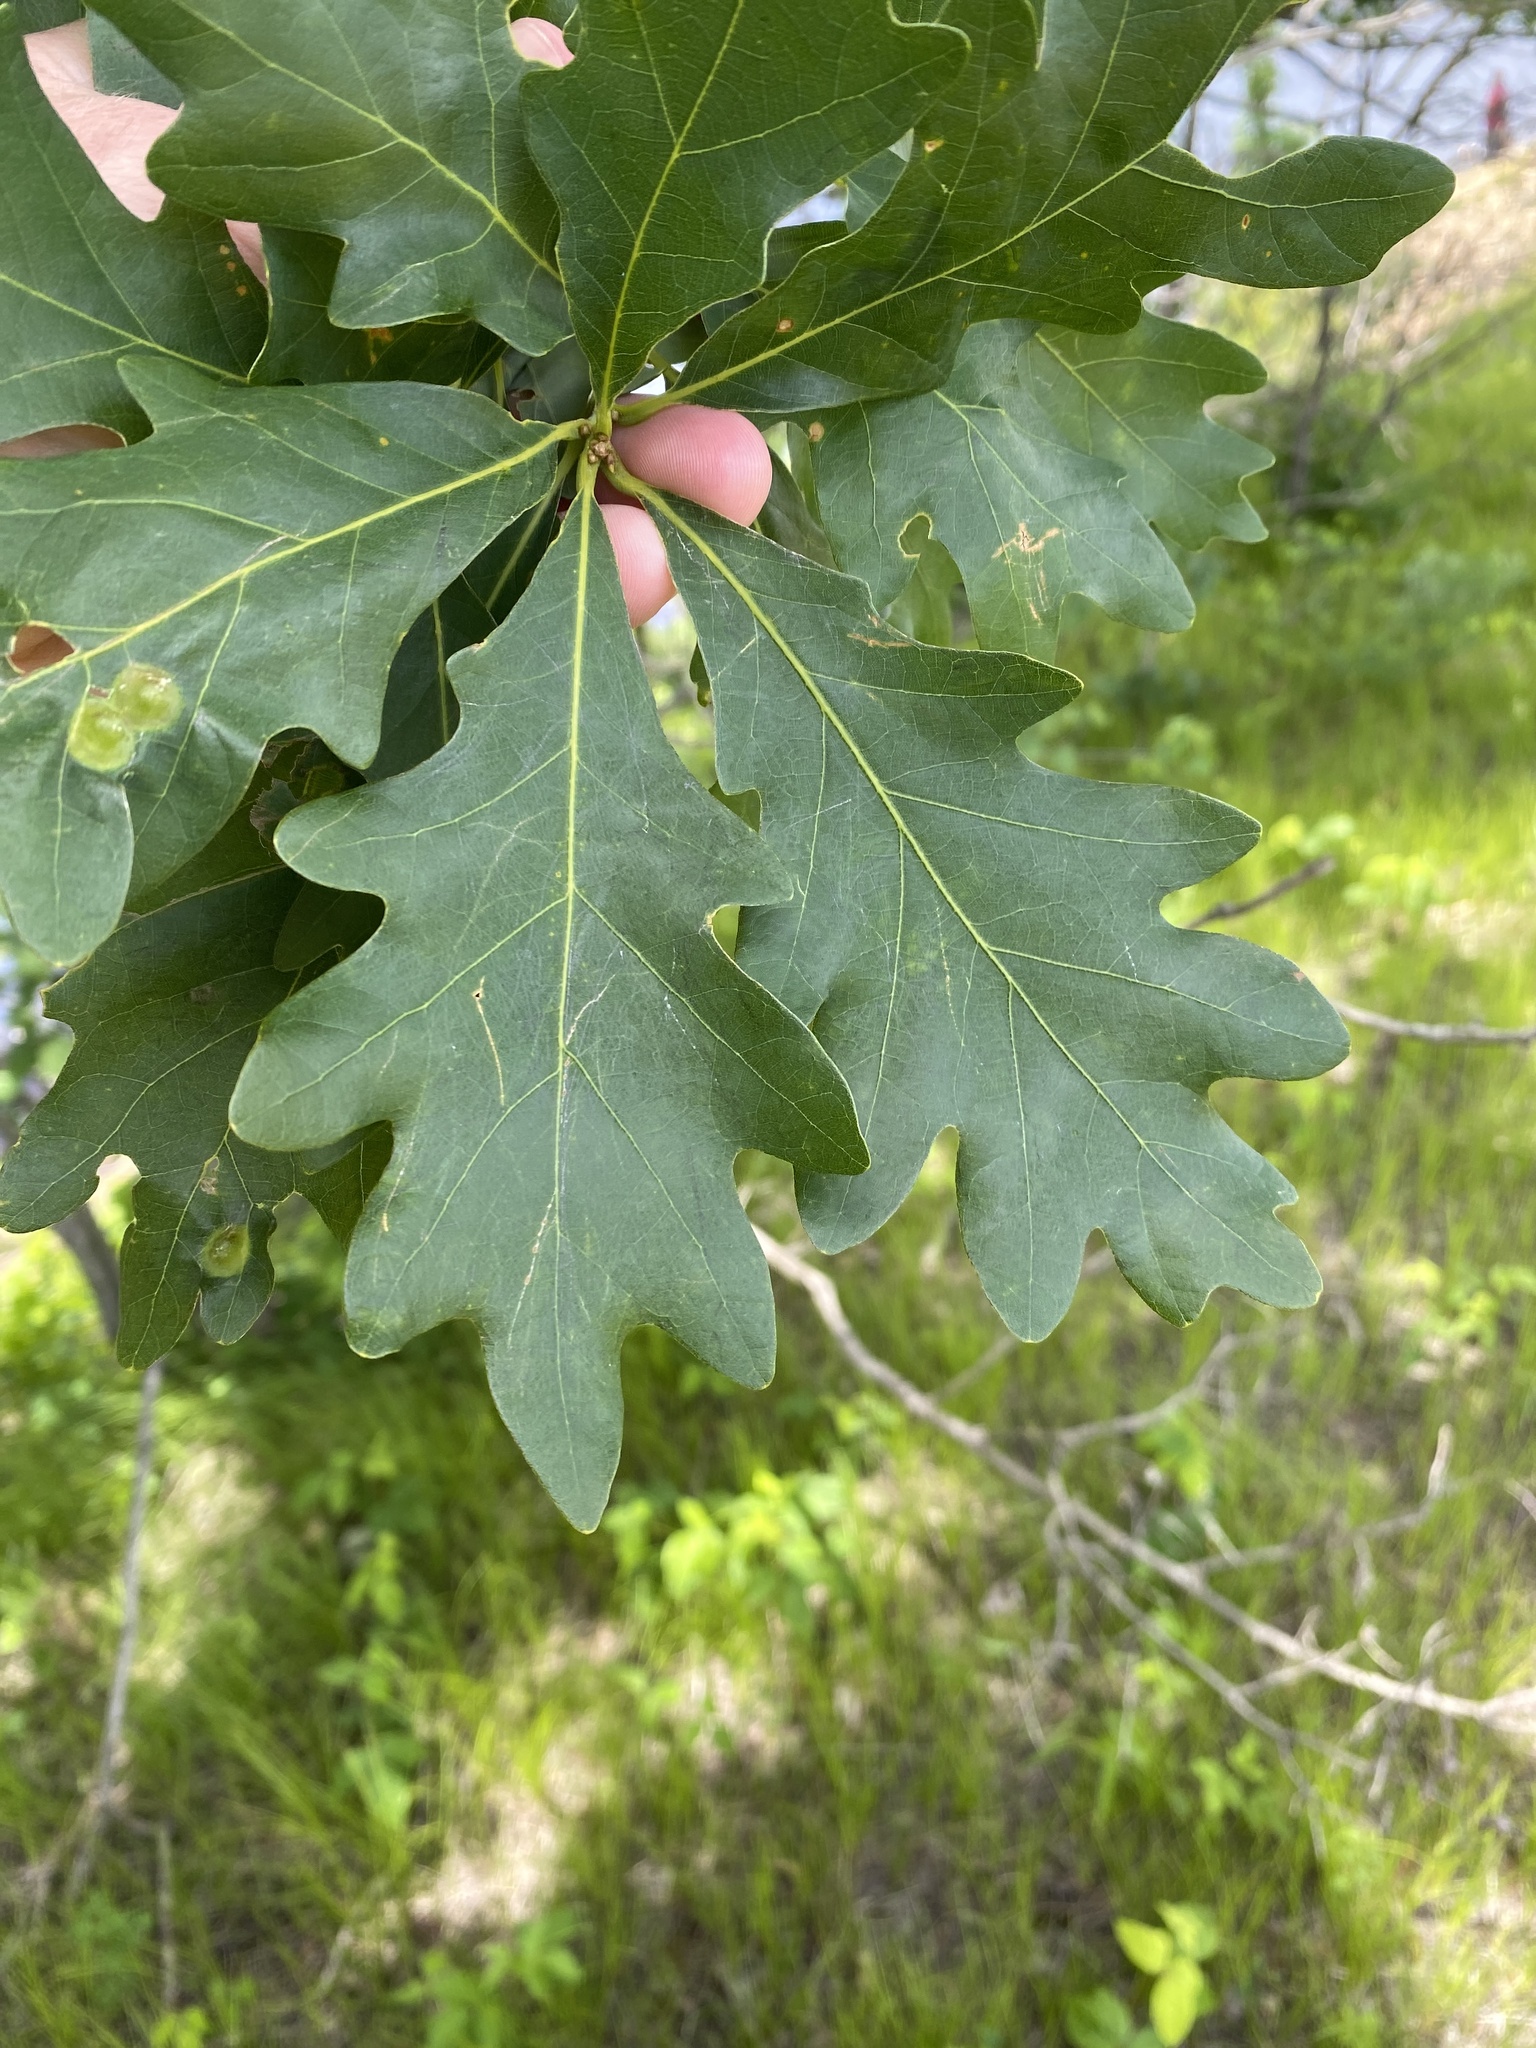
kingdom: Plantae
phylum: Tracheophyta
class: Magnoliopsida
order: Fagales
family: Fagaceae
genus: Quercus
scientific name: Quercus alba
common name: White oak
